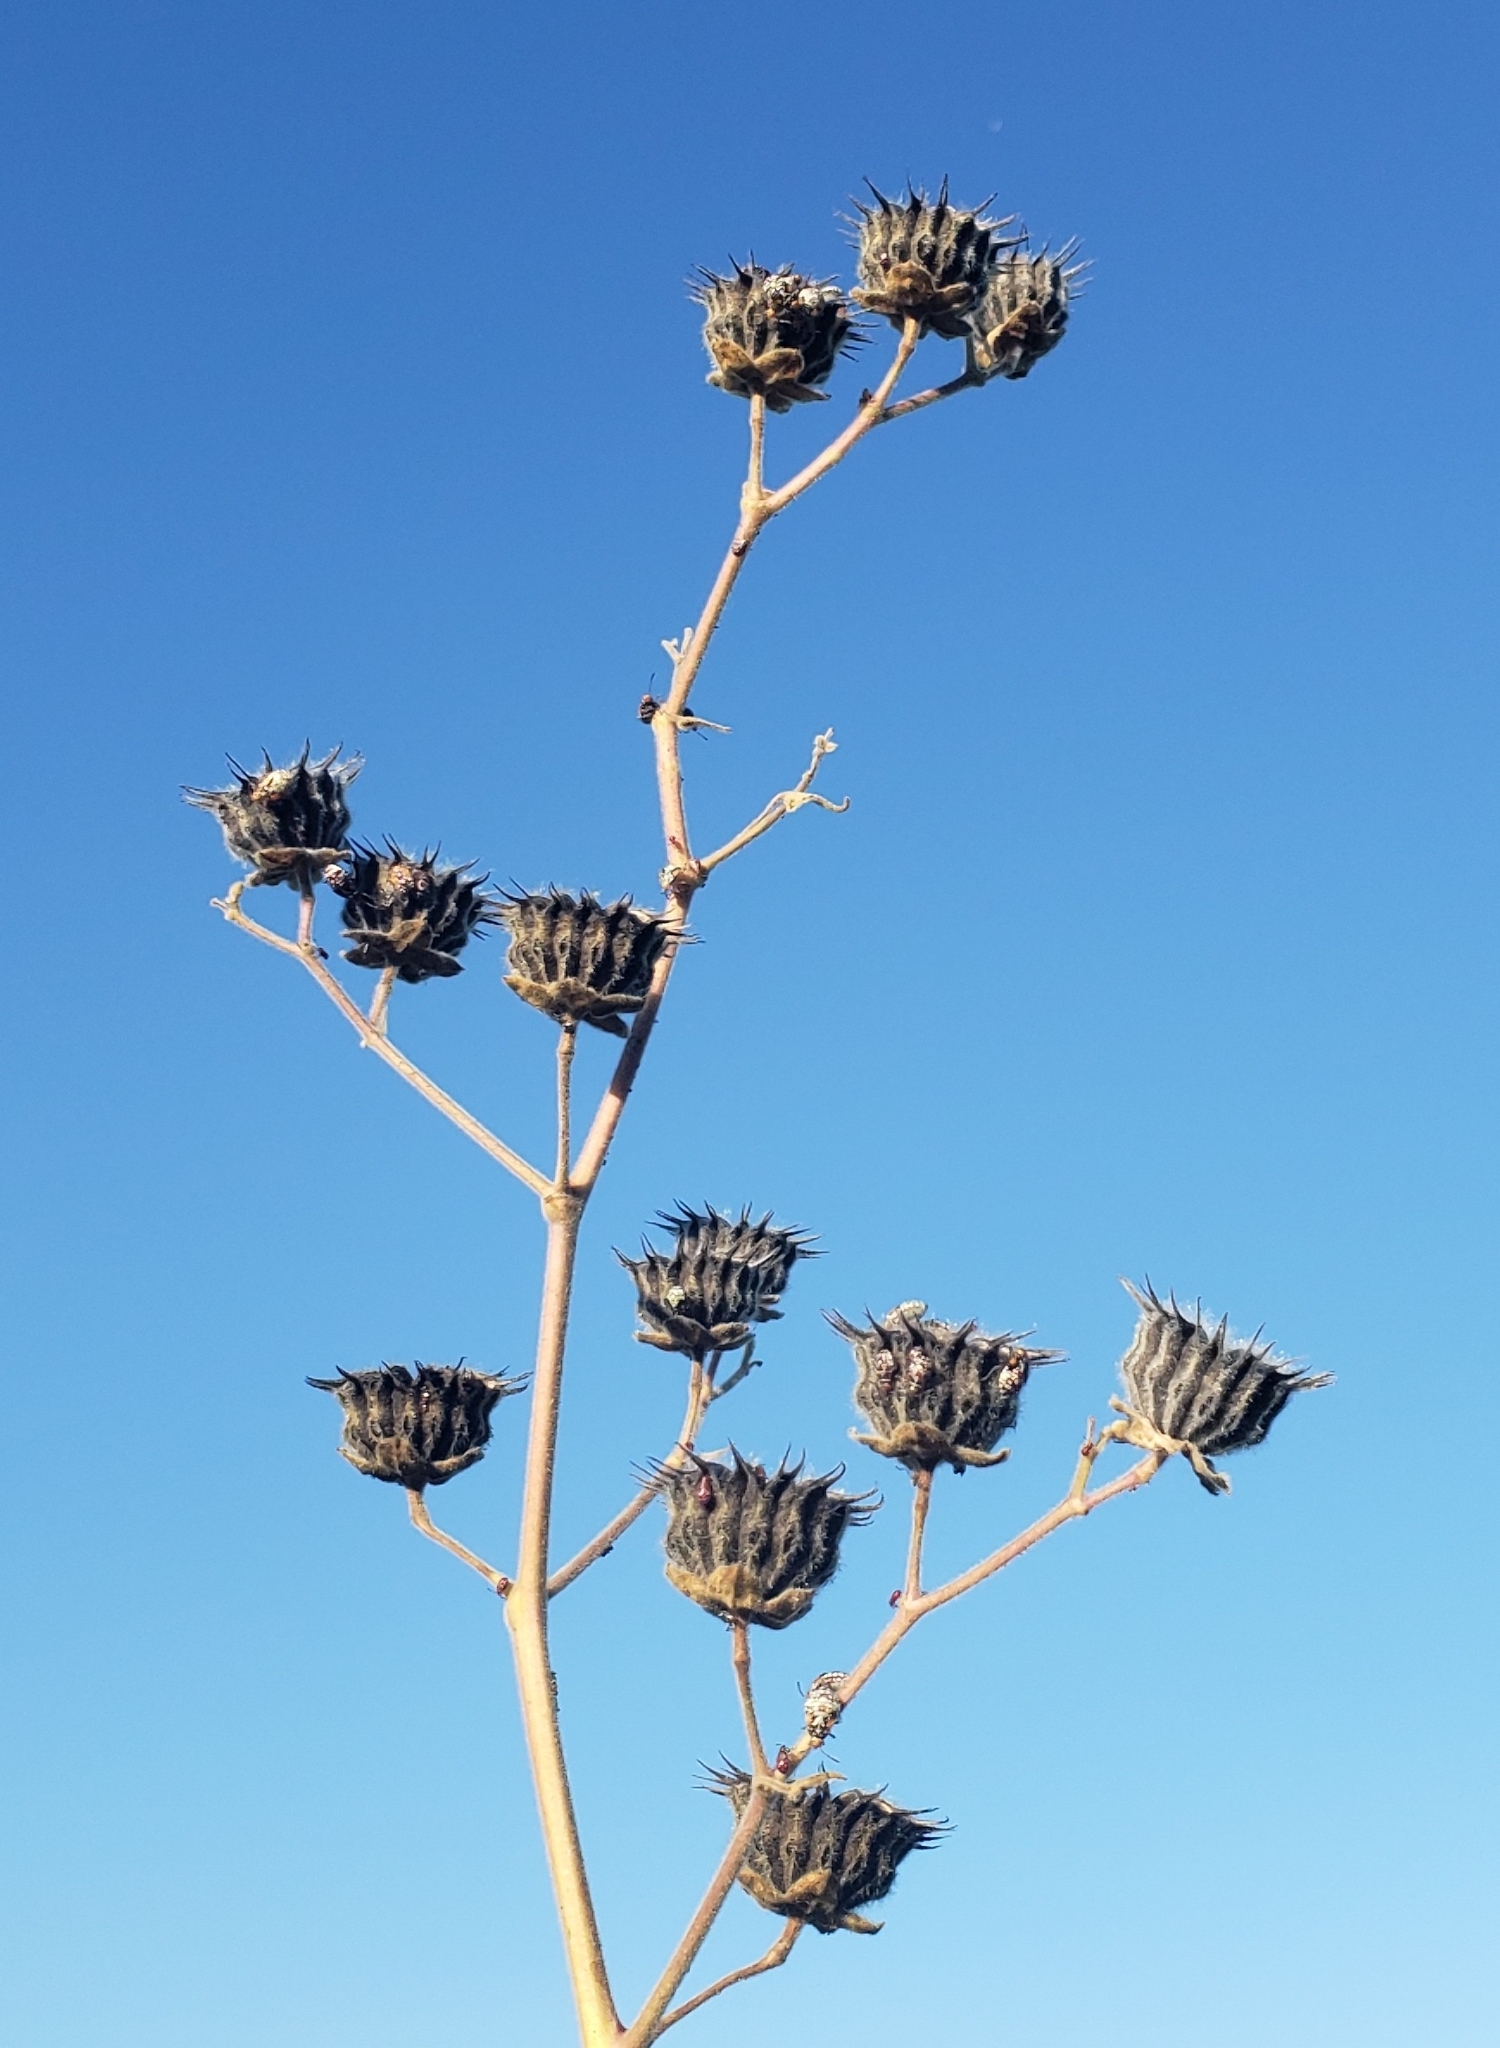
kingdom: Plantae
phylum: Tracheophyta
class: Magnoliopsida
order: Malvales
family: Malvaceae
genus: Abutilon
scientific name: Abutilon theophrasti
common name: Velvetleaf
